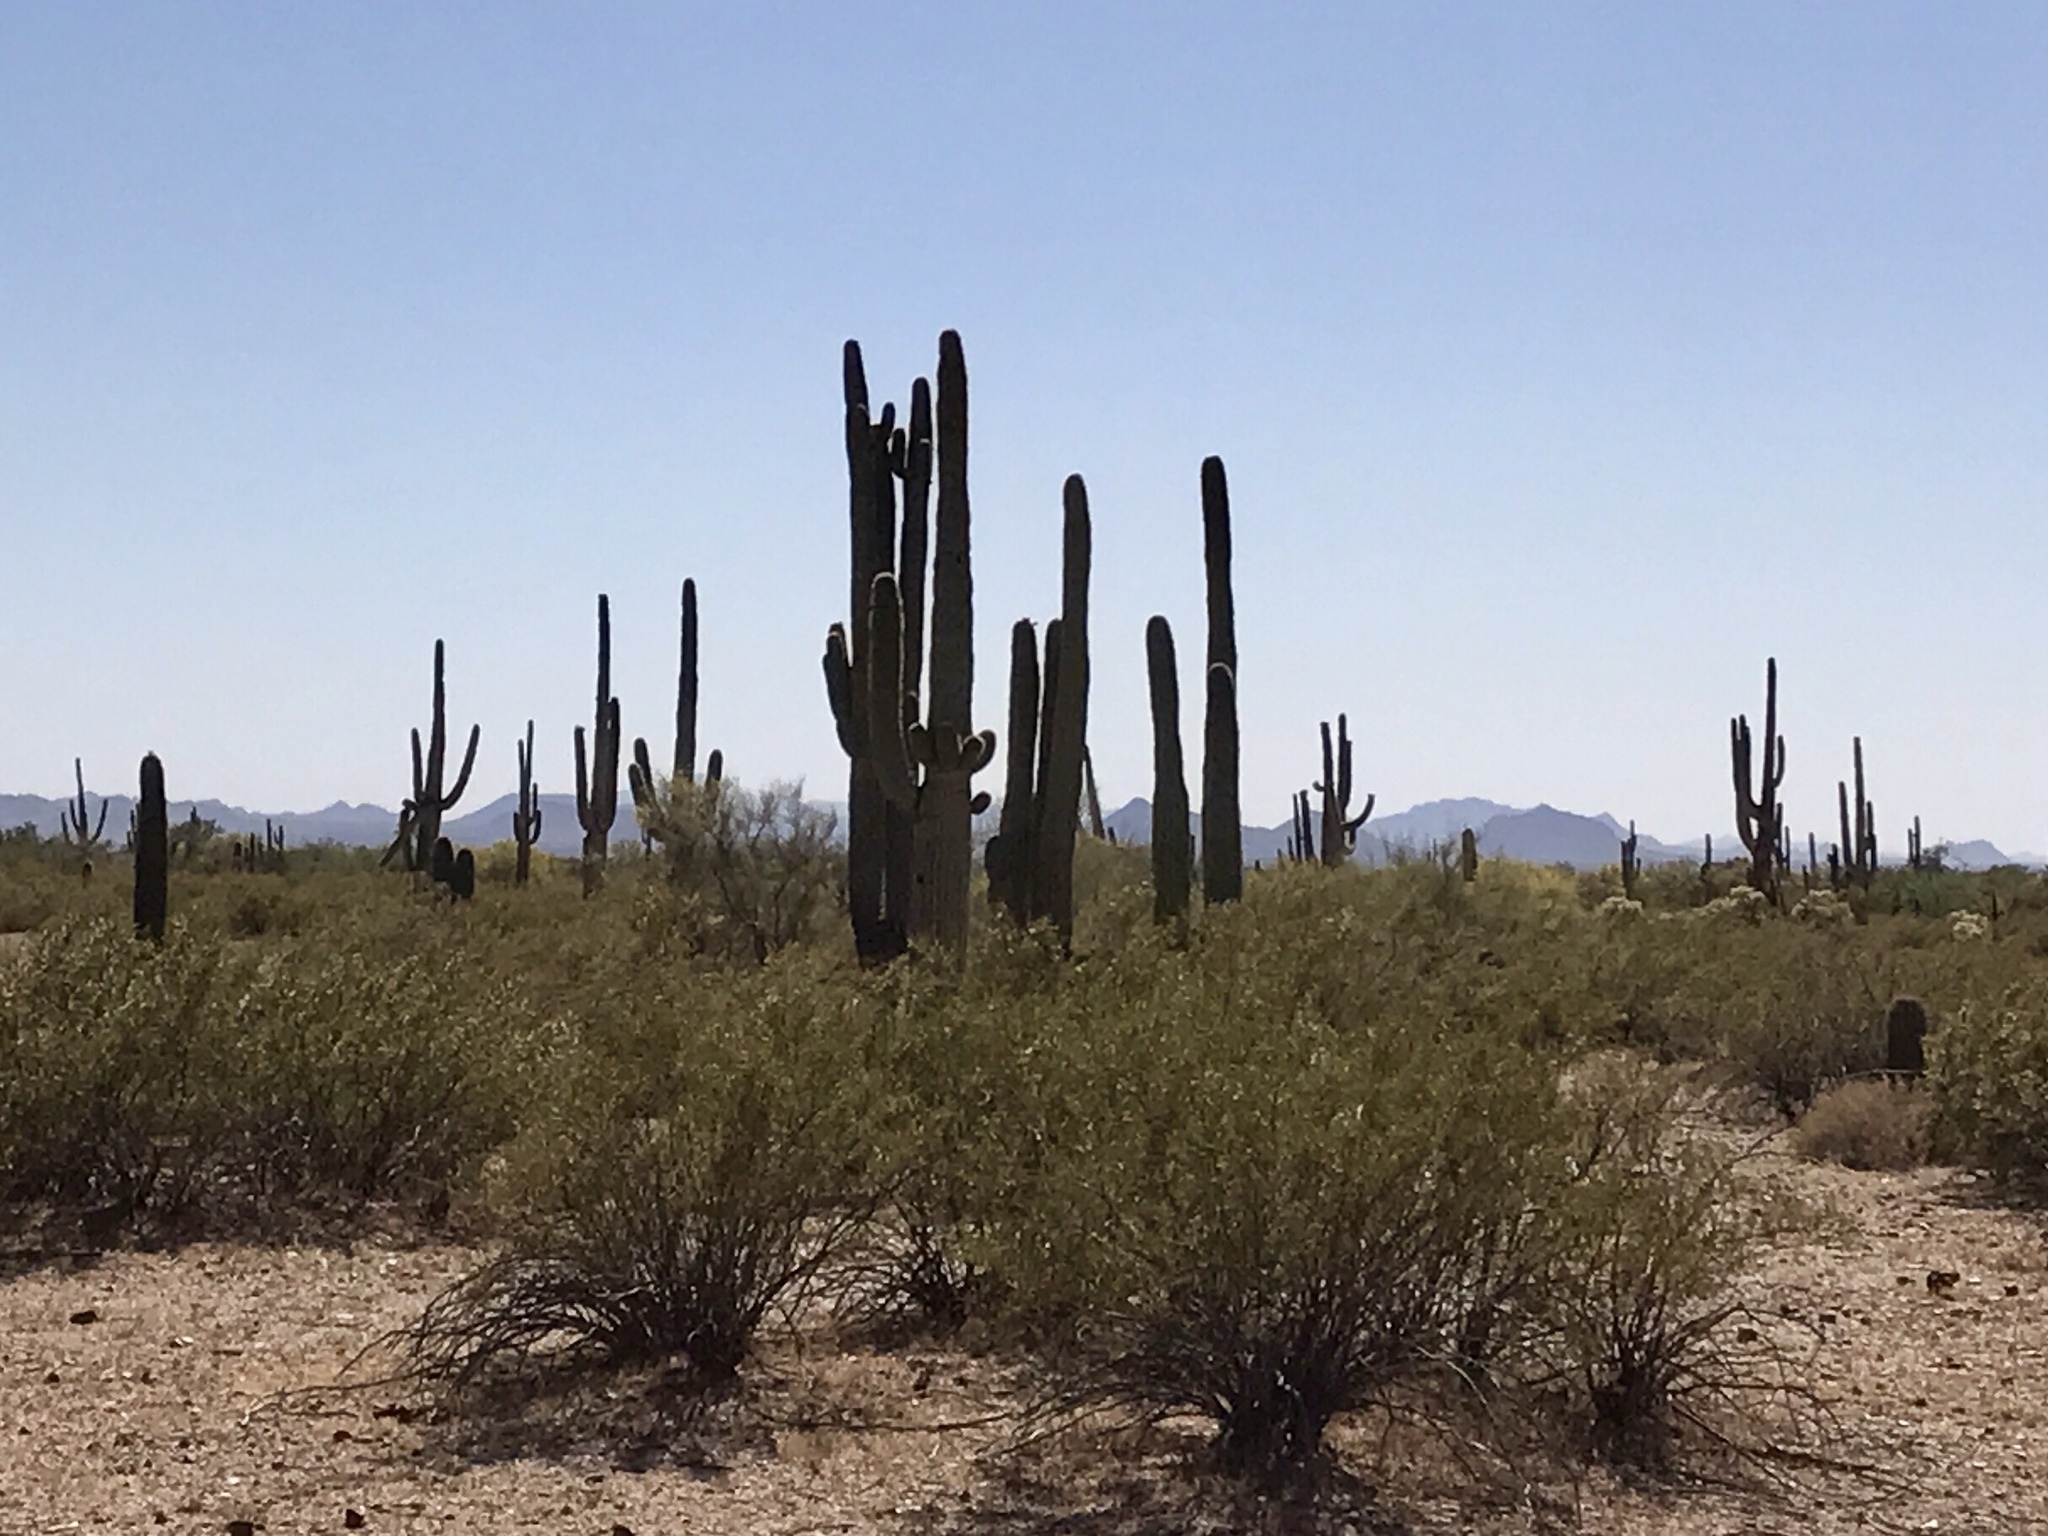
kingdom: Plantae
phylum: Tracheophyta
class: Magnoliopsida
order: Zygophyllales
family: Zygophyllaceae
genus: Larrea
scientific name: Larrea tridentata
